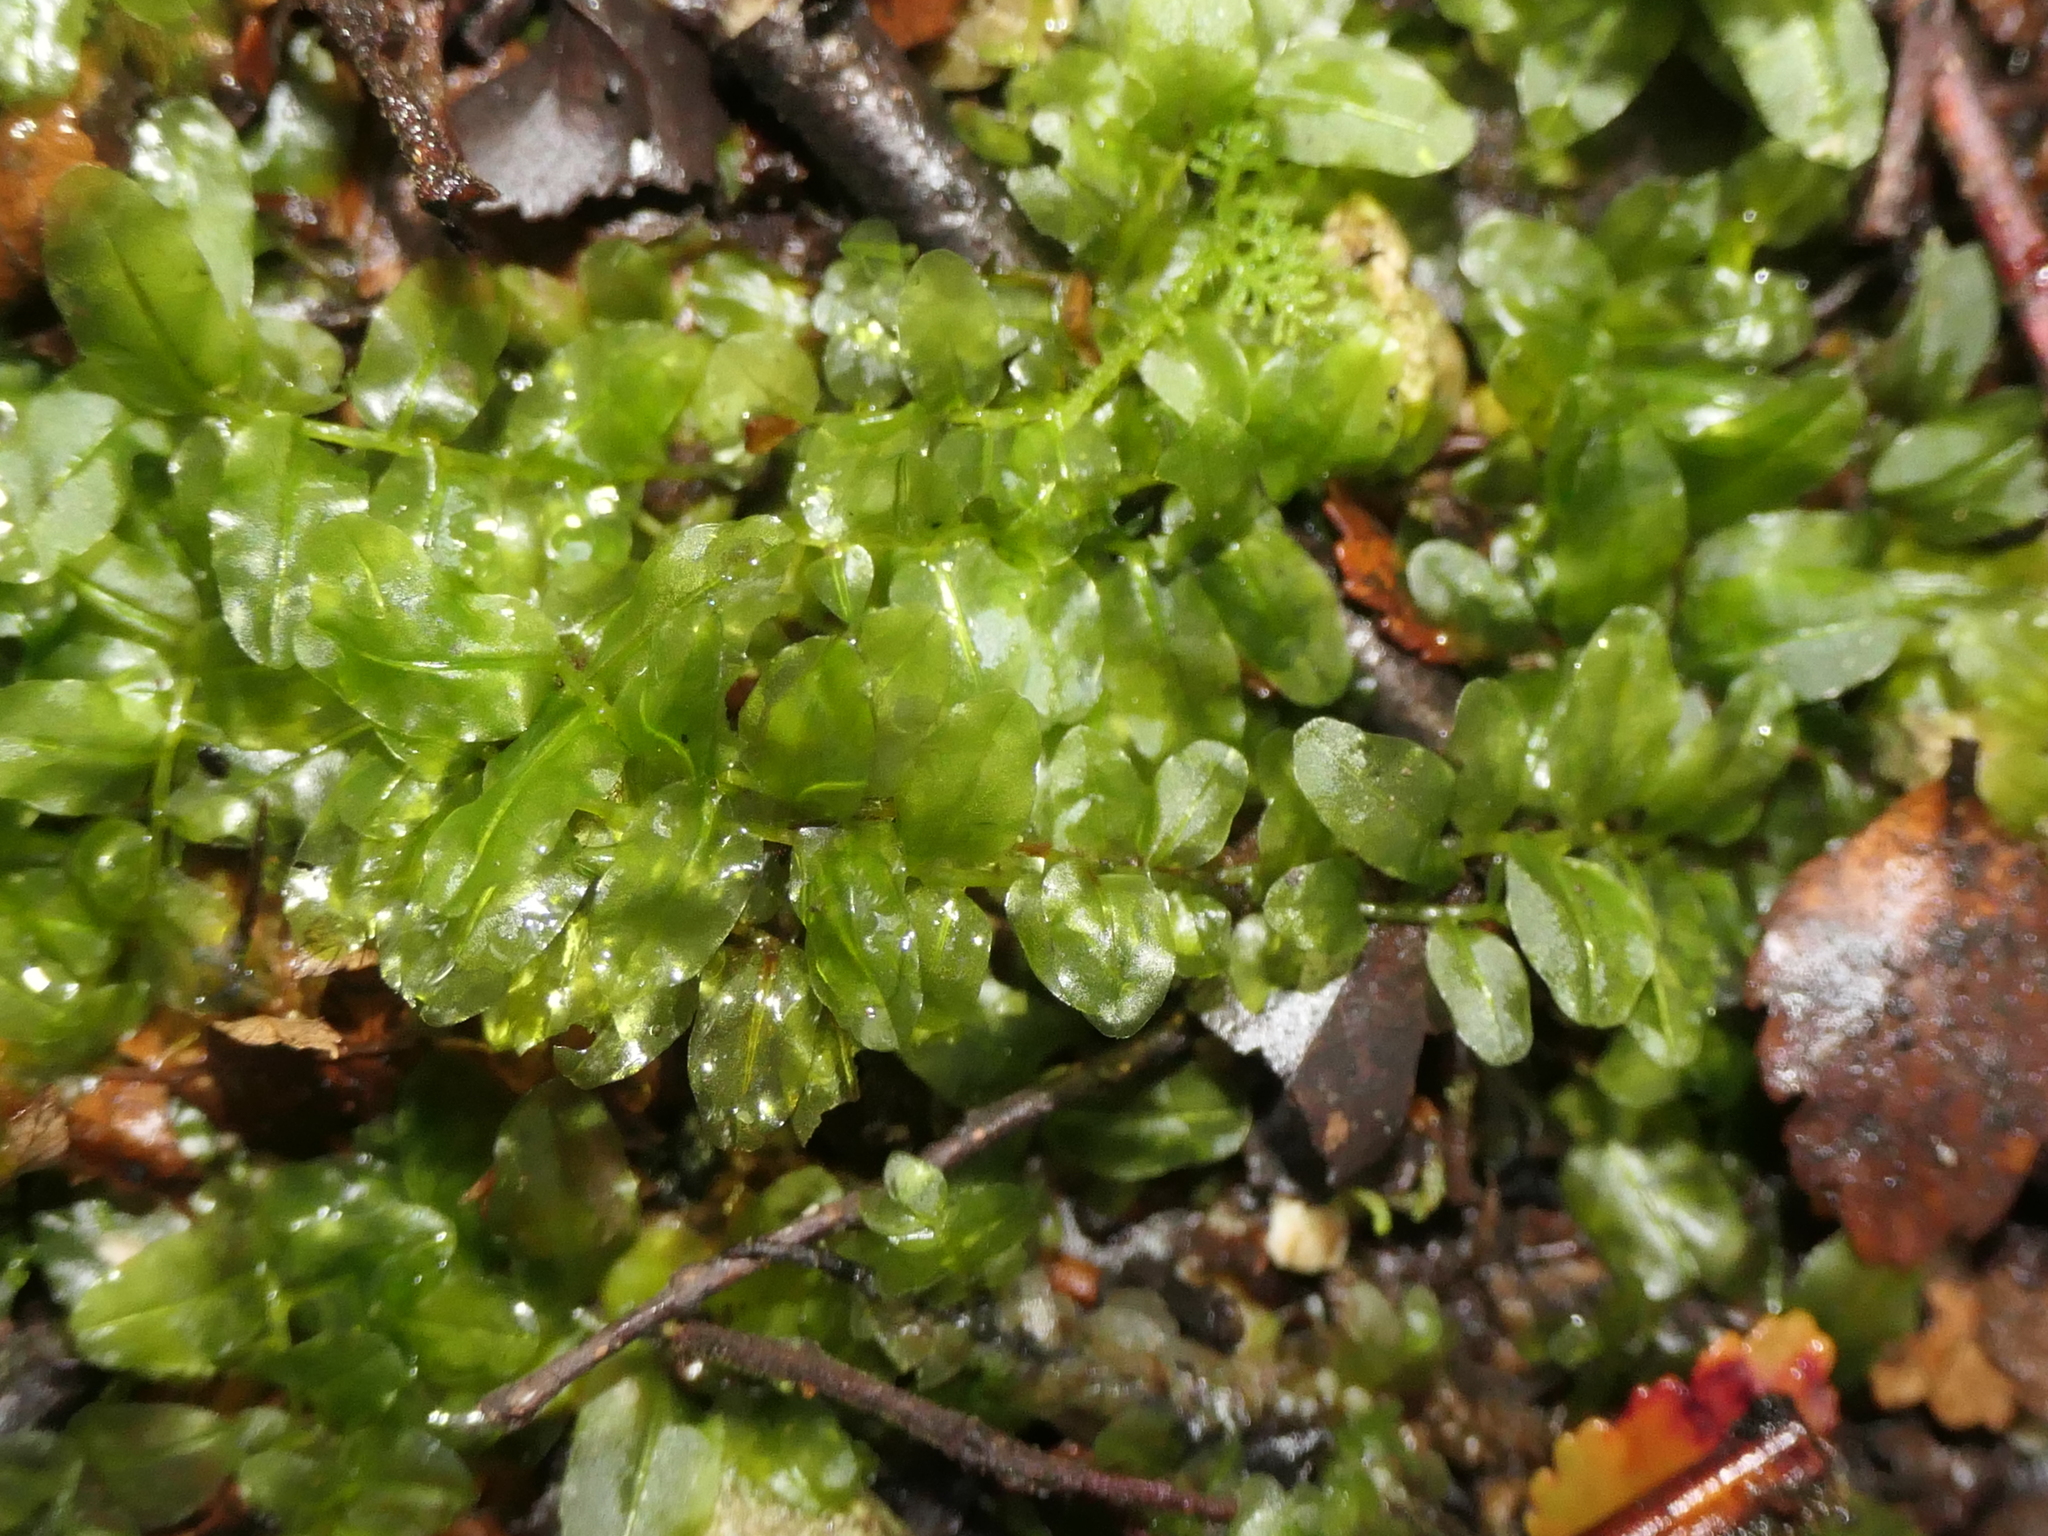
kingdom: Plantae
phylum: Bryophyta
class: Bryopsida
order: Bryales
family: Mniaceae
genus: Plagiomnium
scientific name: Plagiomnium novae-zealandiae
